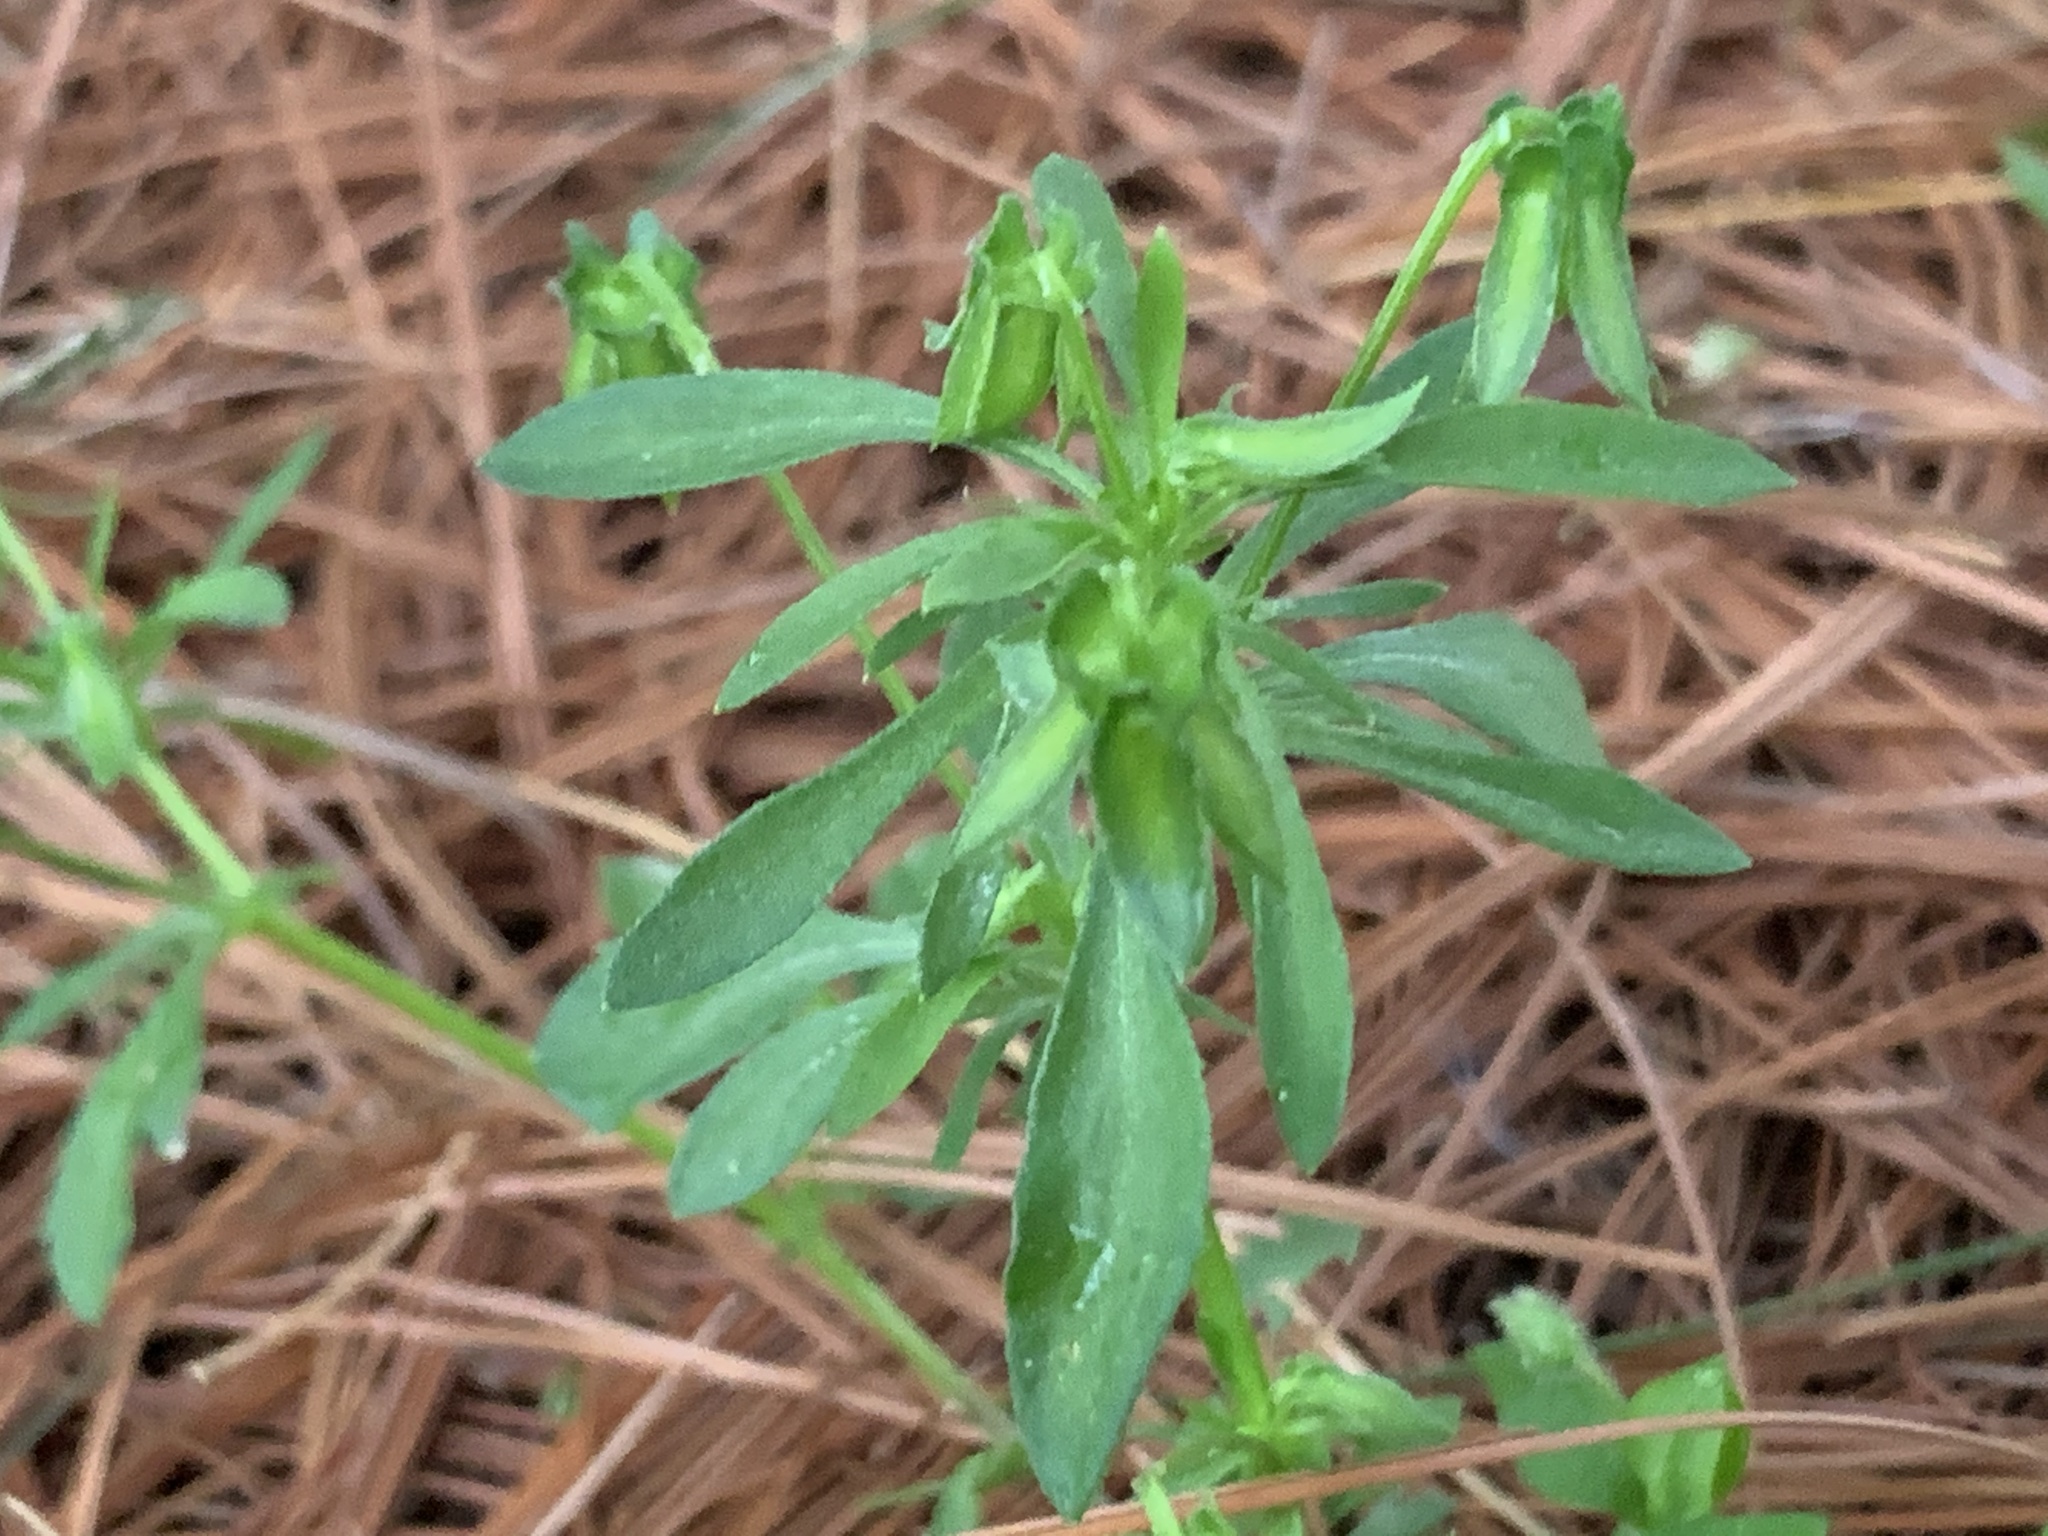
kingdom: Plantae
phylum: Tracheophyta
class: Magnoliopsida
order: Malpighiales
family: Violaceae
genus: Viola
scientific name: Viola rafinesquei
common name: American field pansy
